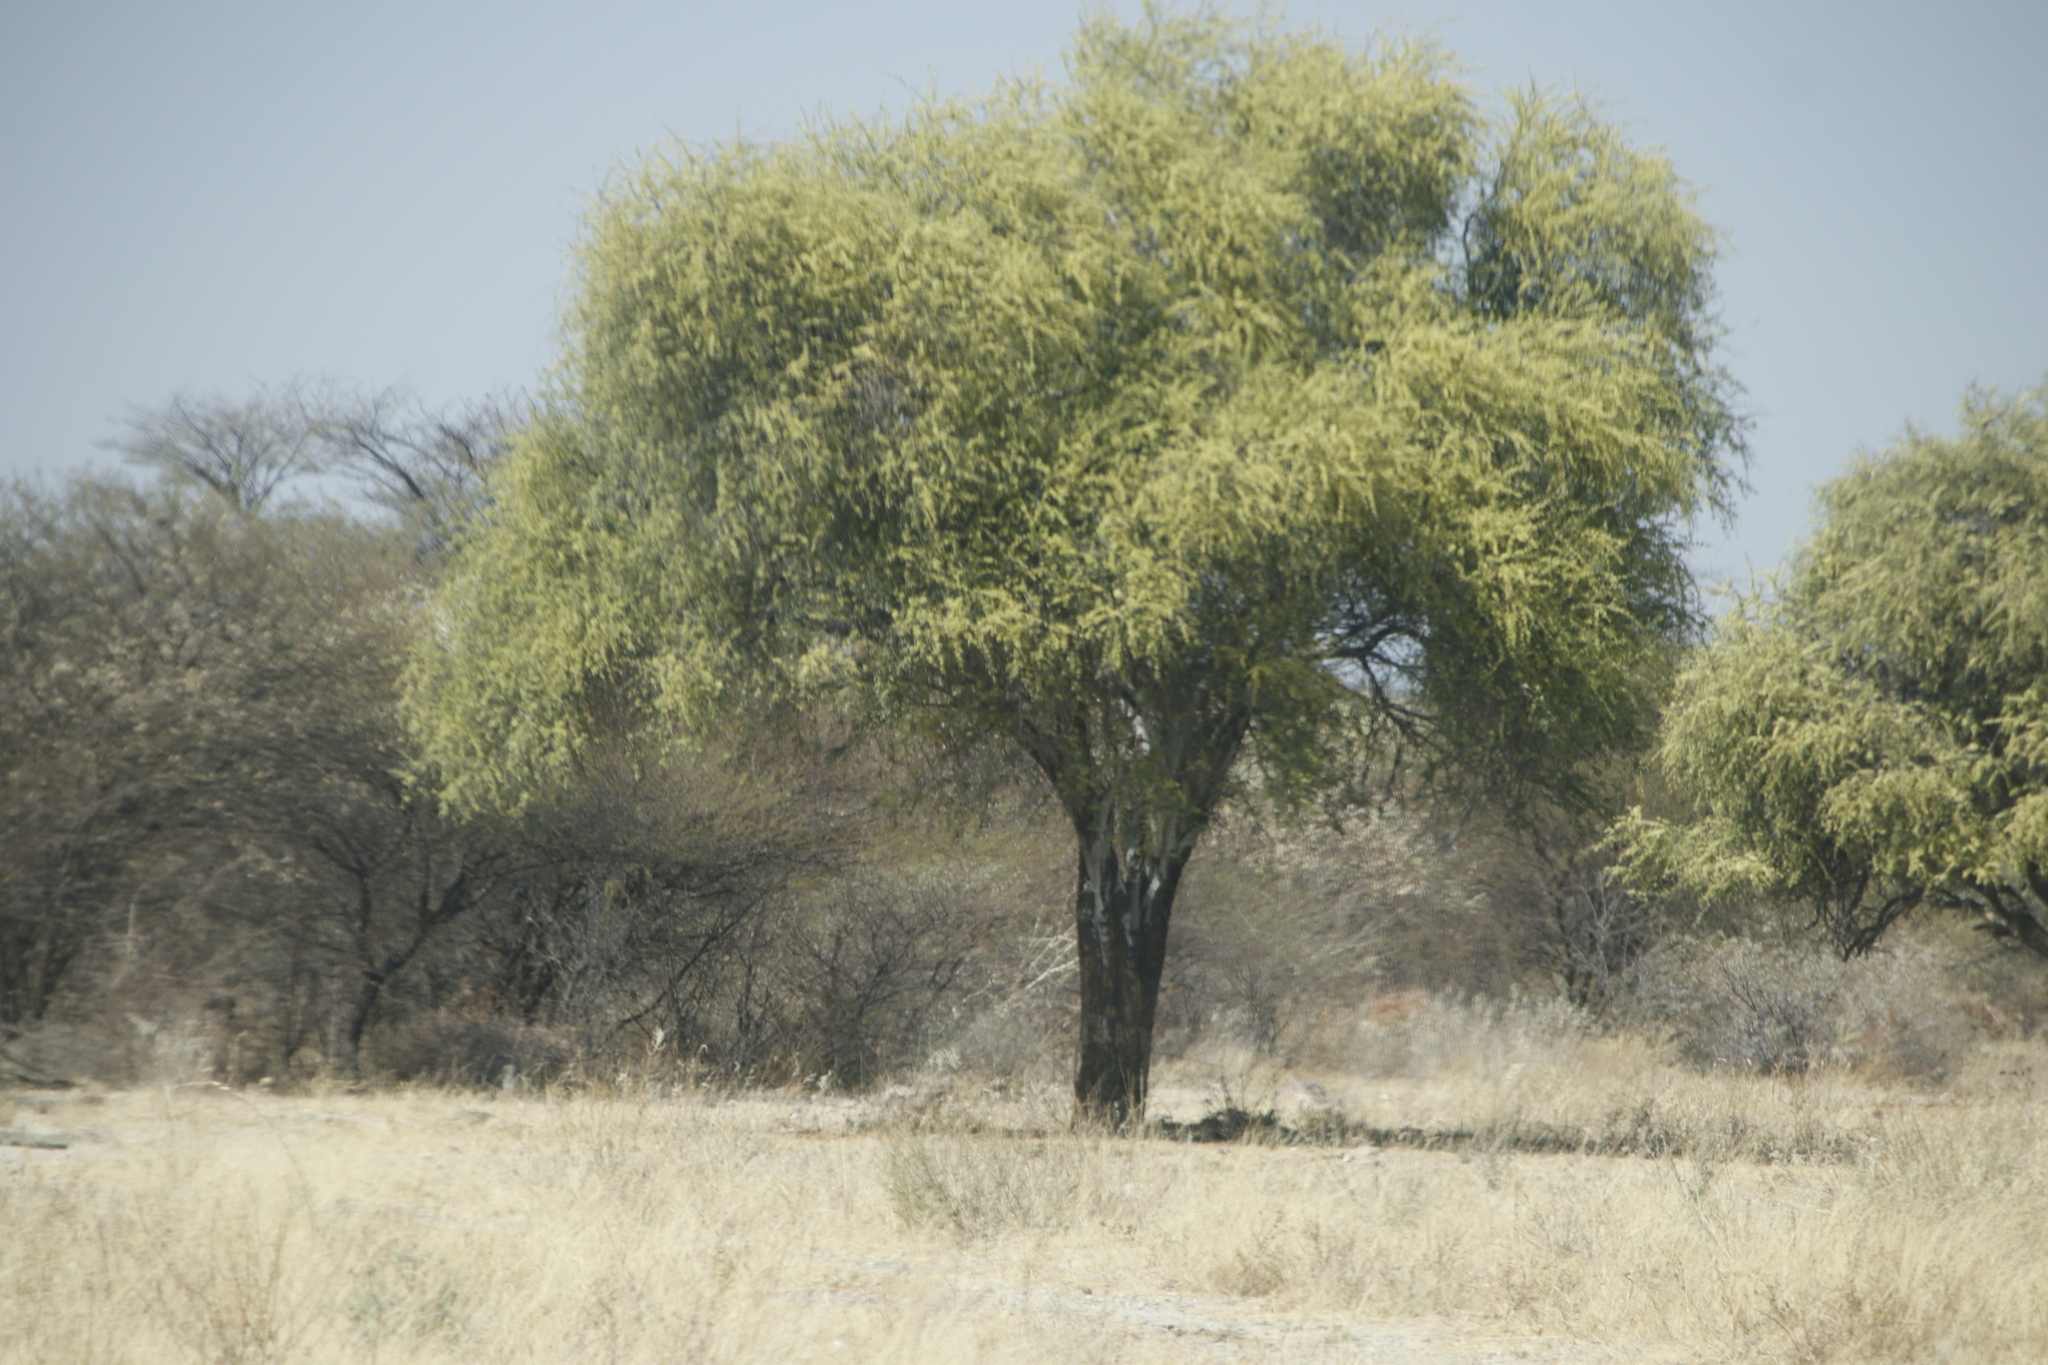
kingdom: Plantae
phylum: Tracheophyta
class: Magnoliopsida
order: Brassicales
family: Capparaceae
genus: Boscia
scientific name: Boscia albitrunca
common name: Caper bush
